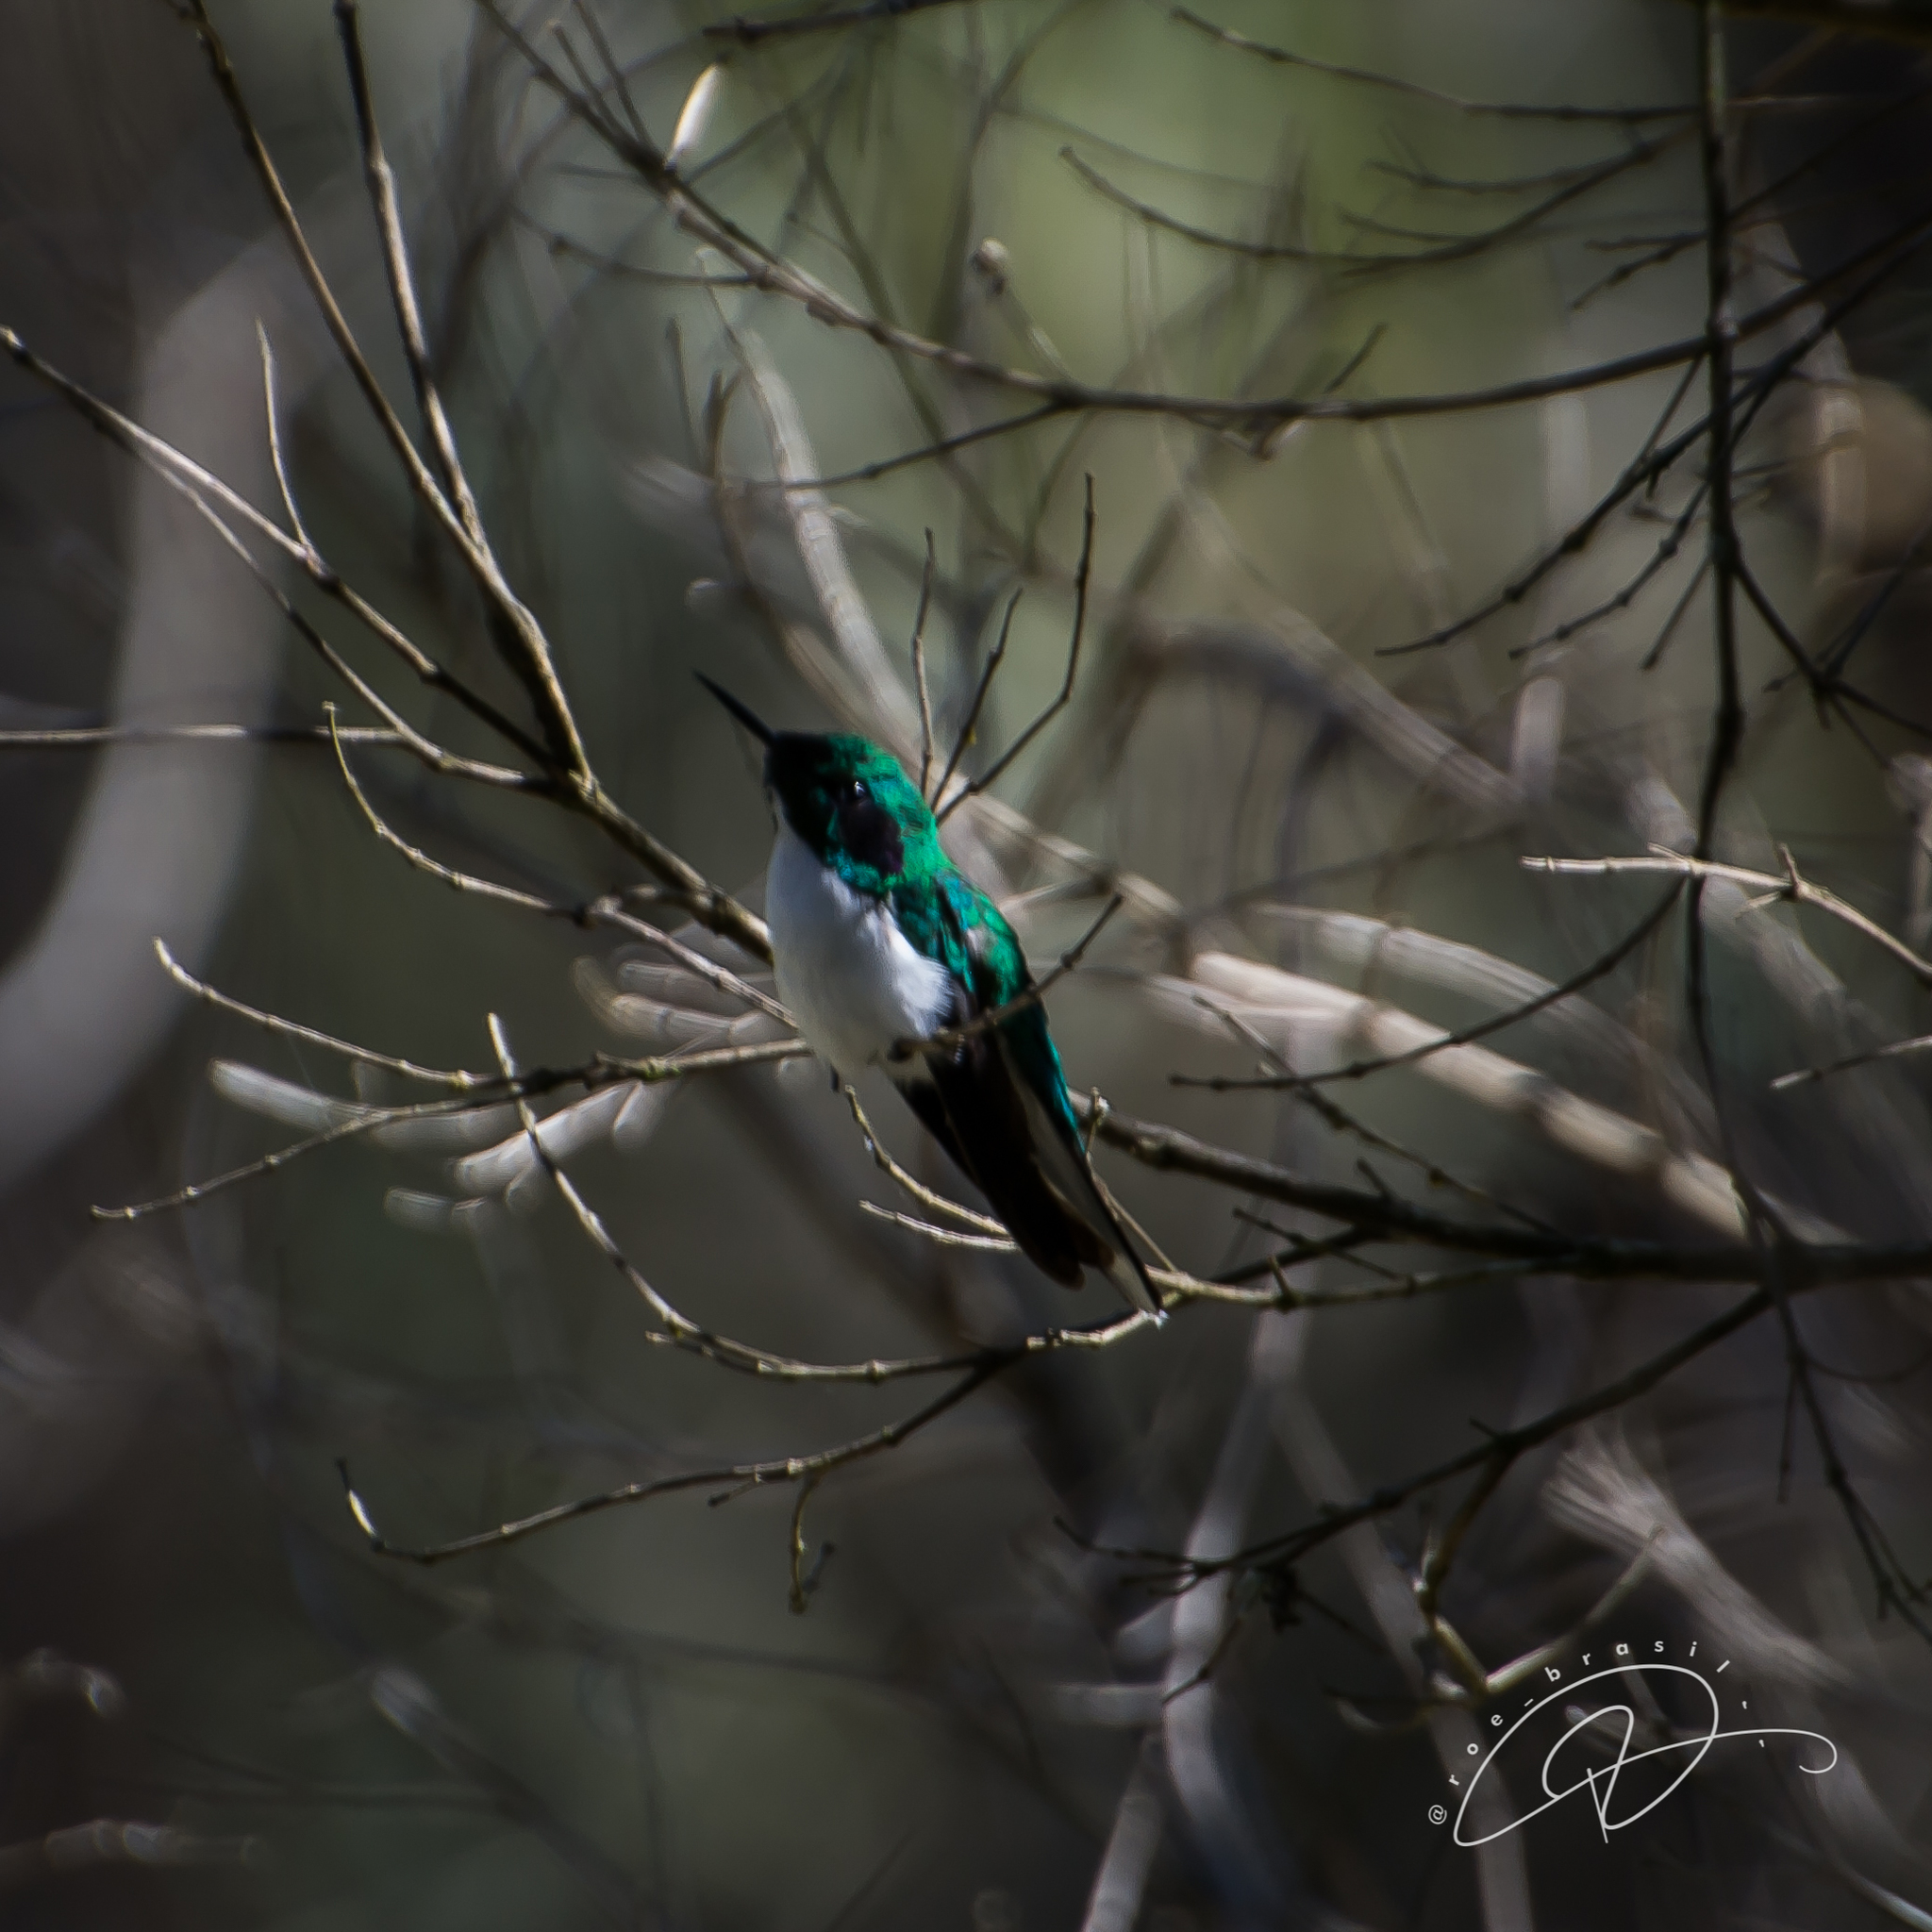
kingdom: Animalia
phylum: Chordata
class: Aves
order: Apodiformes
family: Trochilidae
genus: Heliothryx
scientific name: Heliothryx auritus
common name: Black-eared fairy
